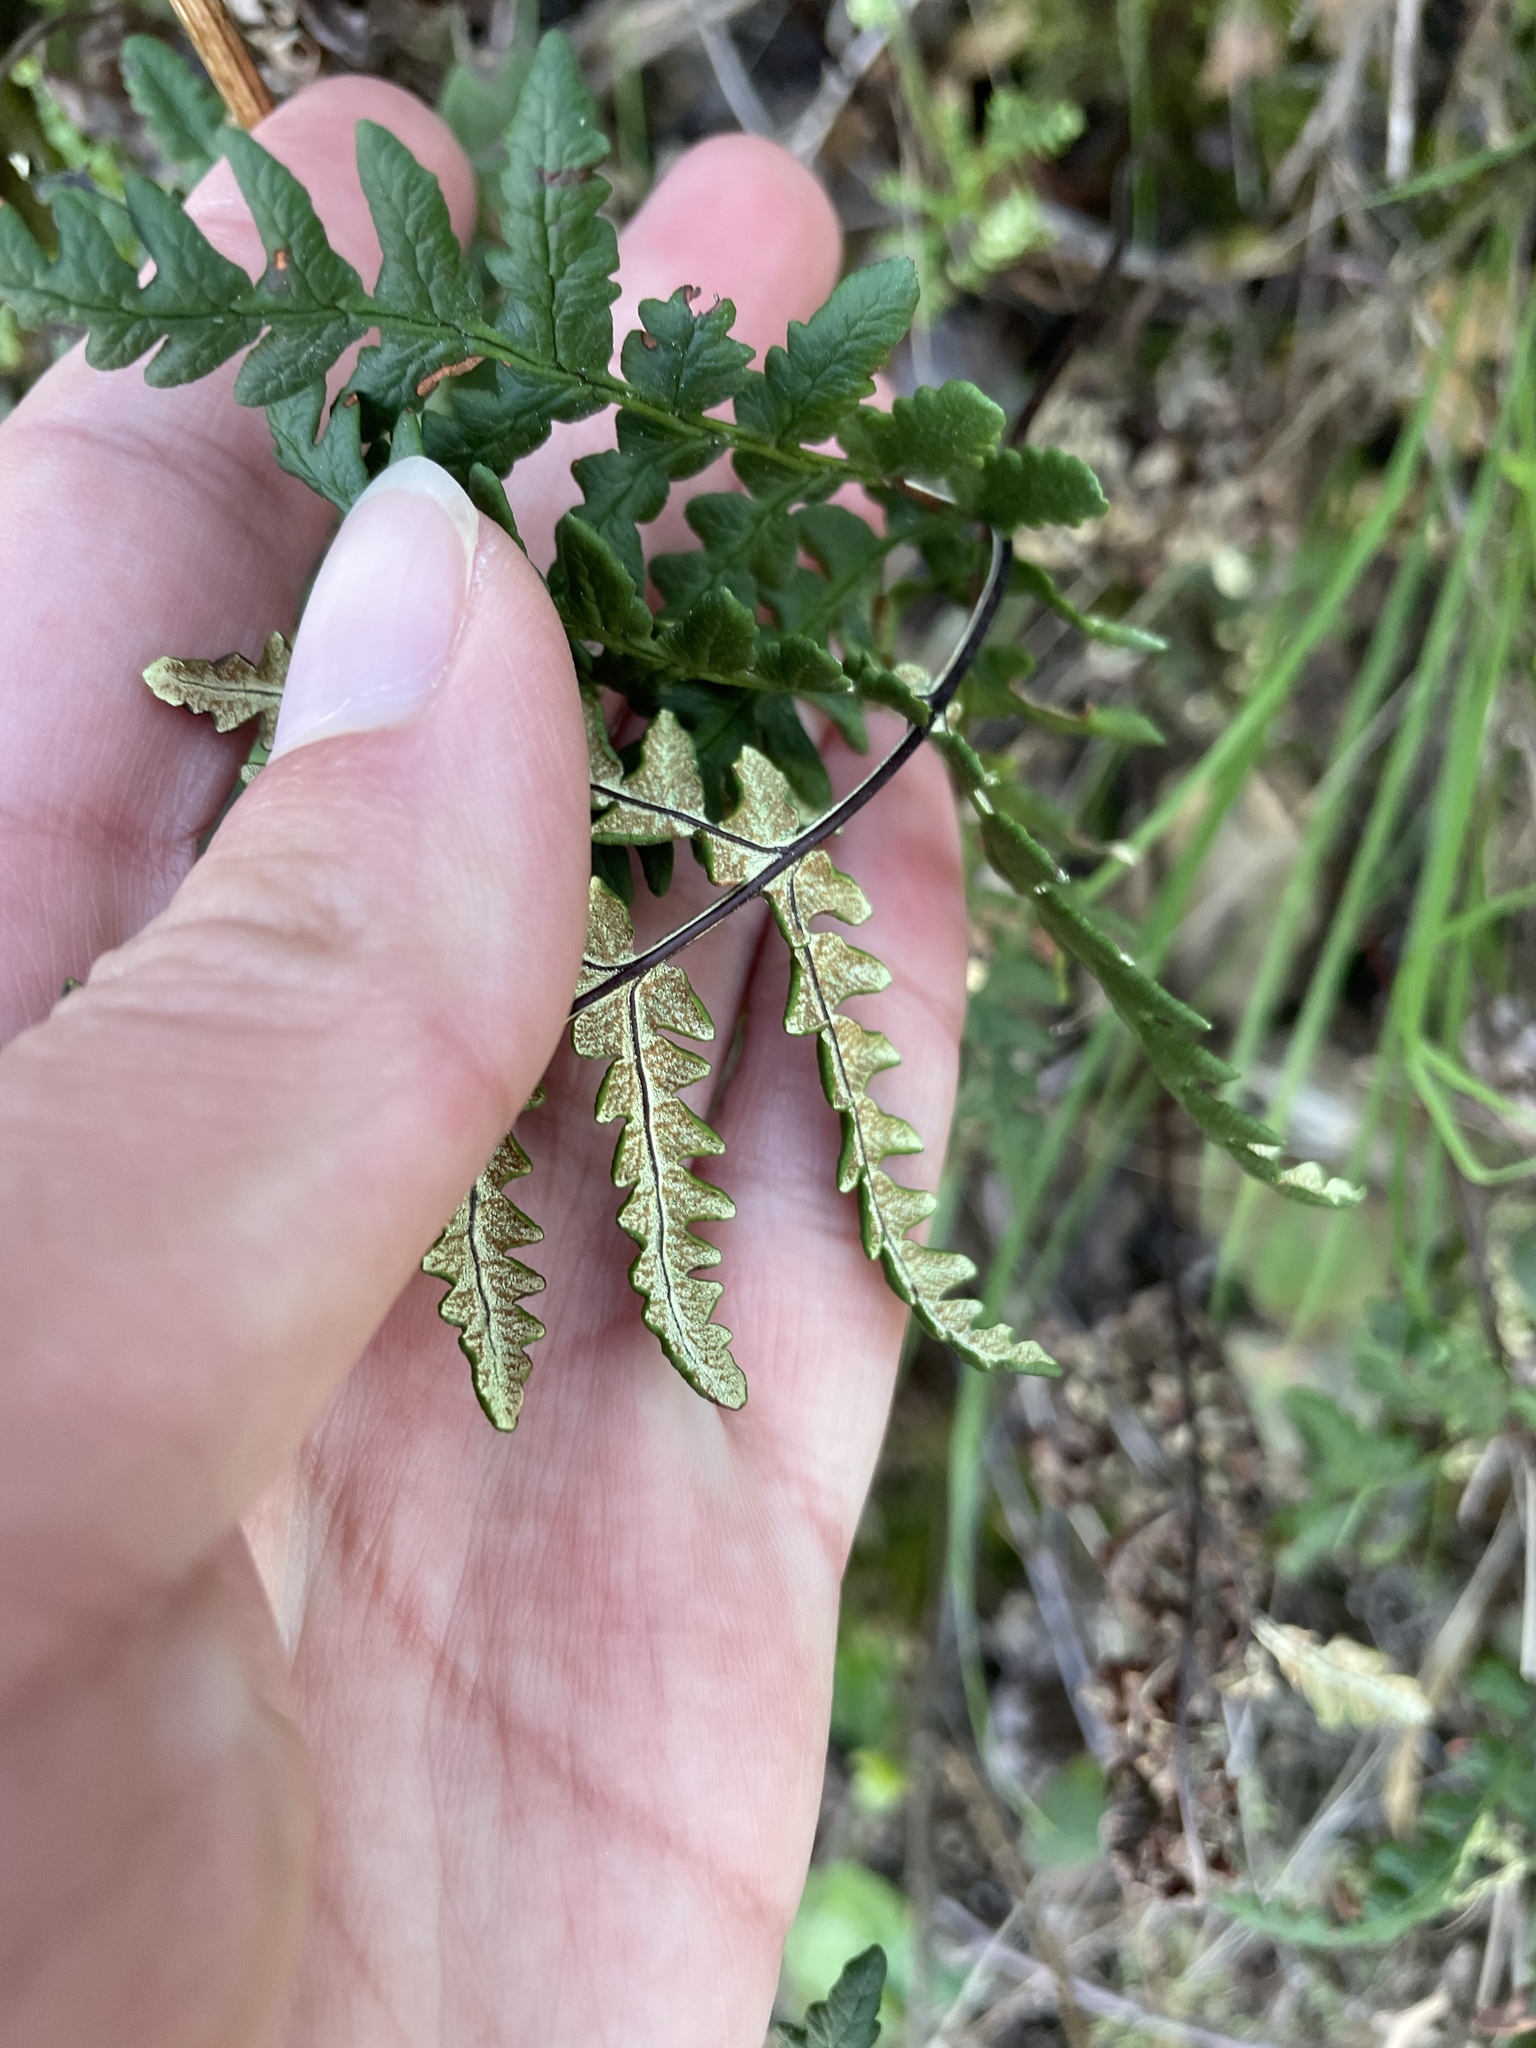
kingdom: Plantae
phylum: Tracheophyta
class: Polypodiopsida
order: Polypodiales
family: Pteridaceae
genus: Pentagramma
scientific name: Pentagramma triangularis
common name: Gold fern
